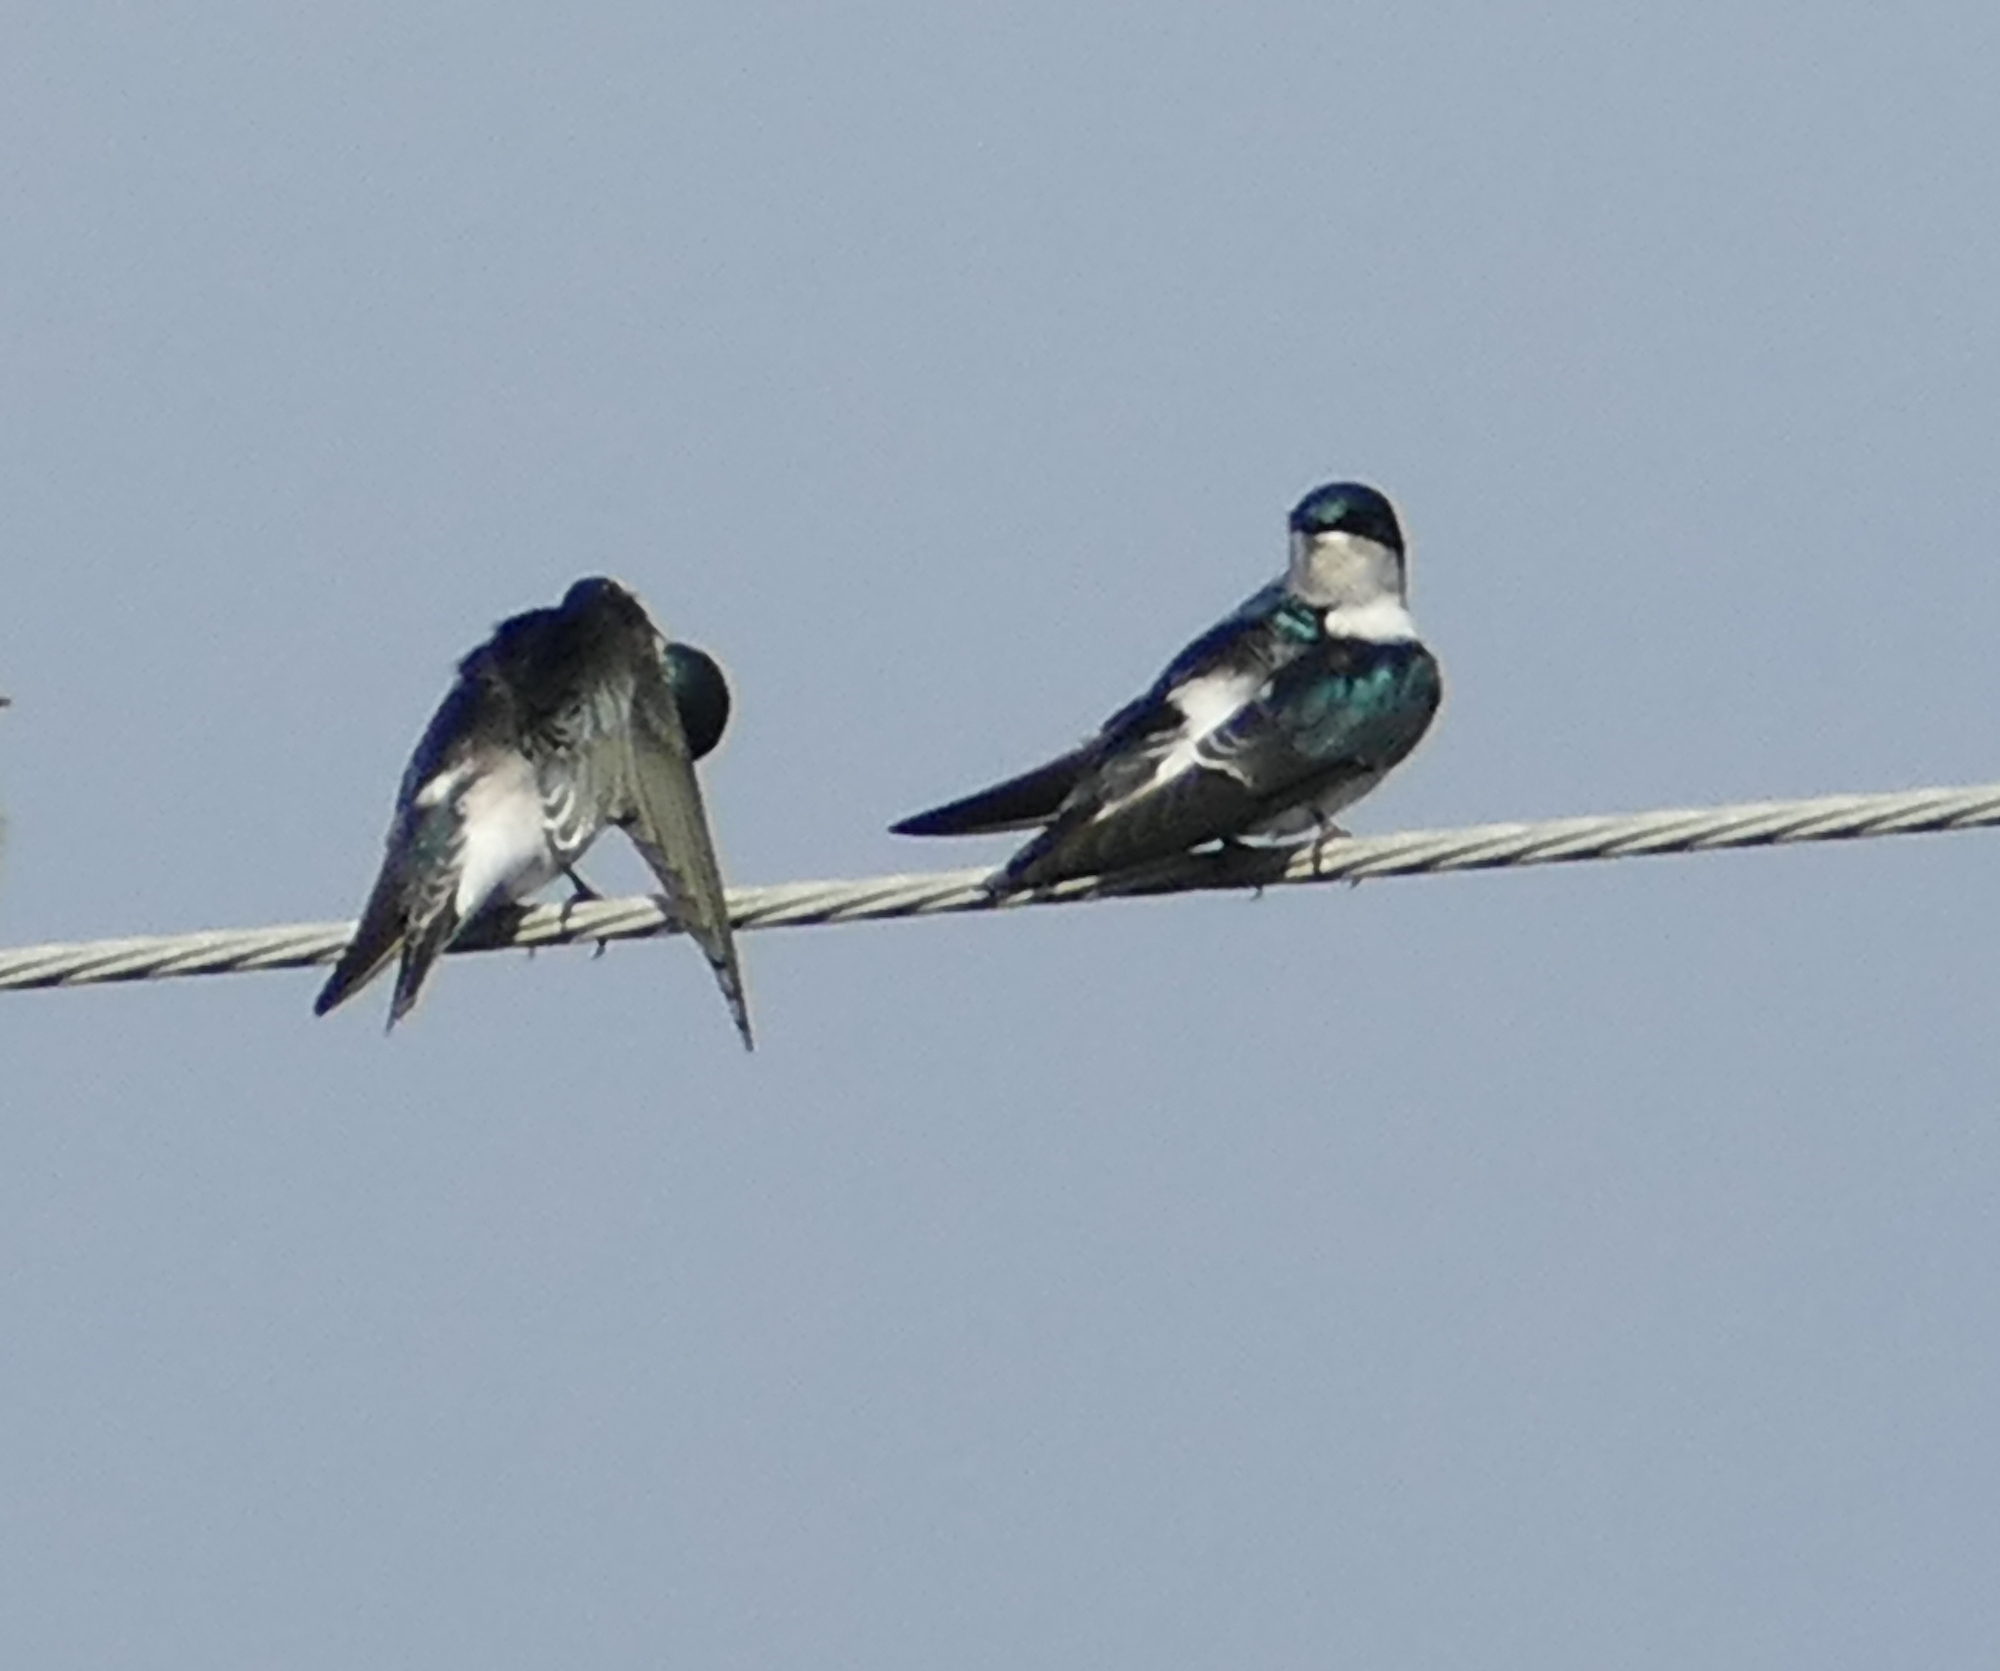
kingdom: Animalia
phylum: Chordata
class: Aves
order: Passeriformes
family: Hirundinidae
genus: Tachycineta
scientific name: Tachycineta bicolor
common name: Tree swallow
